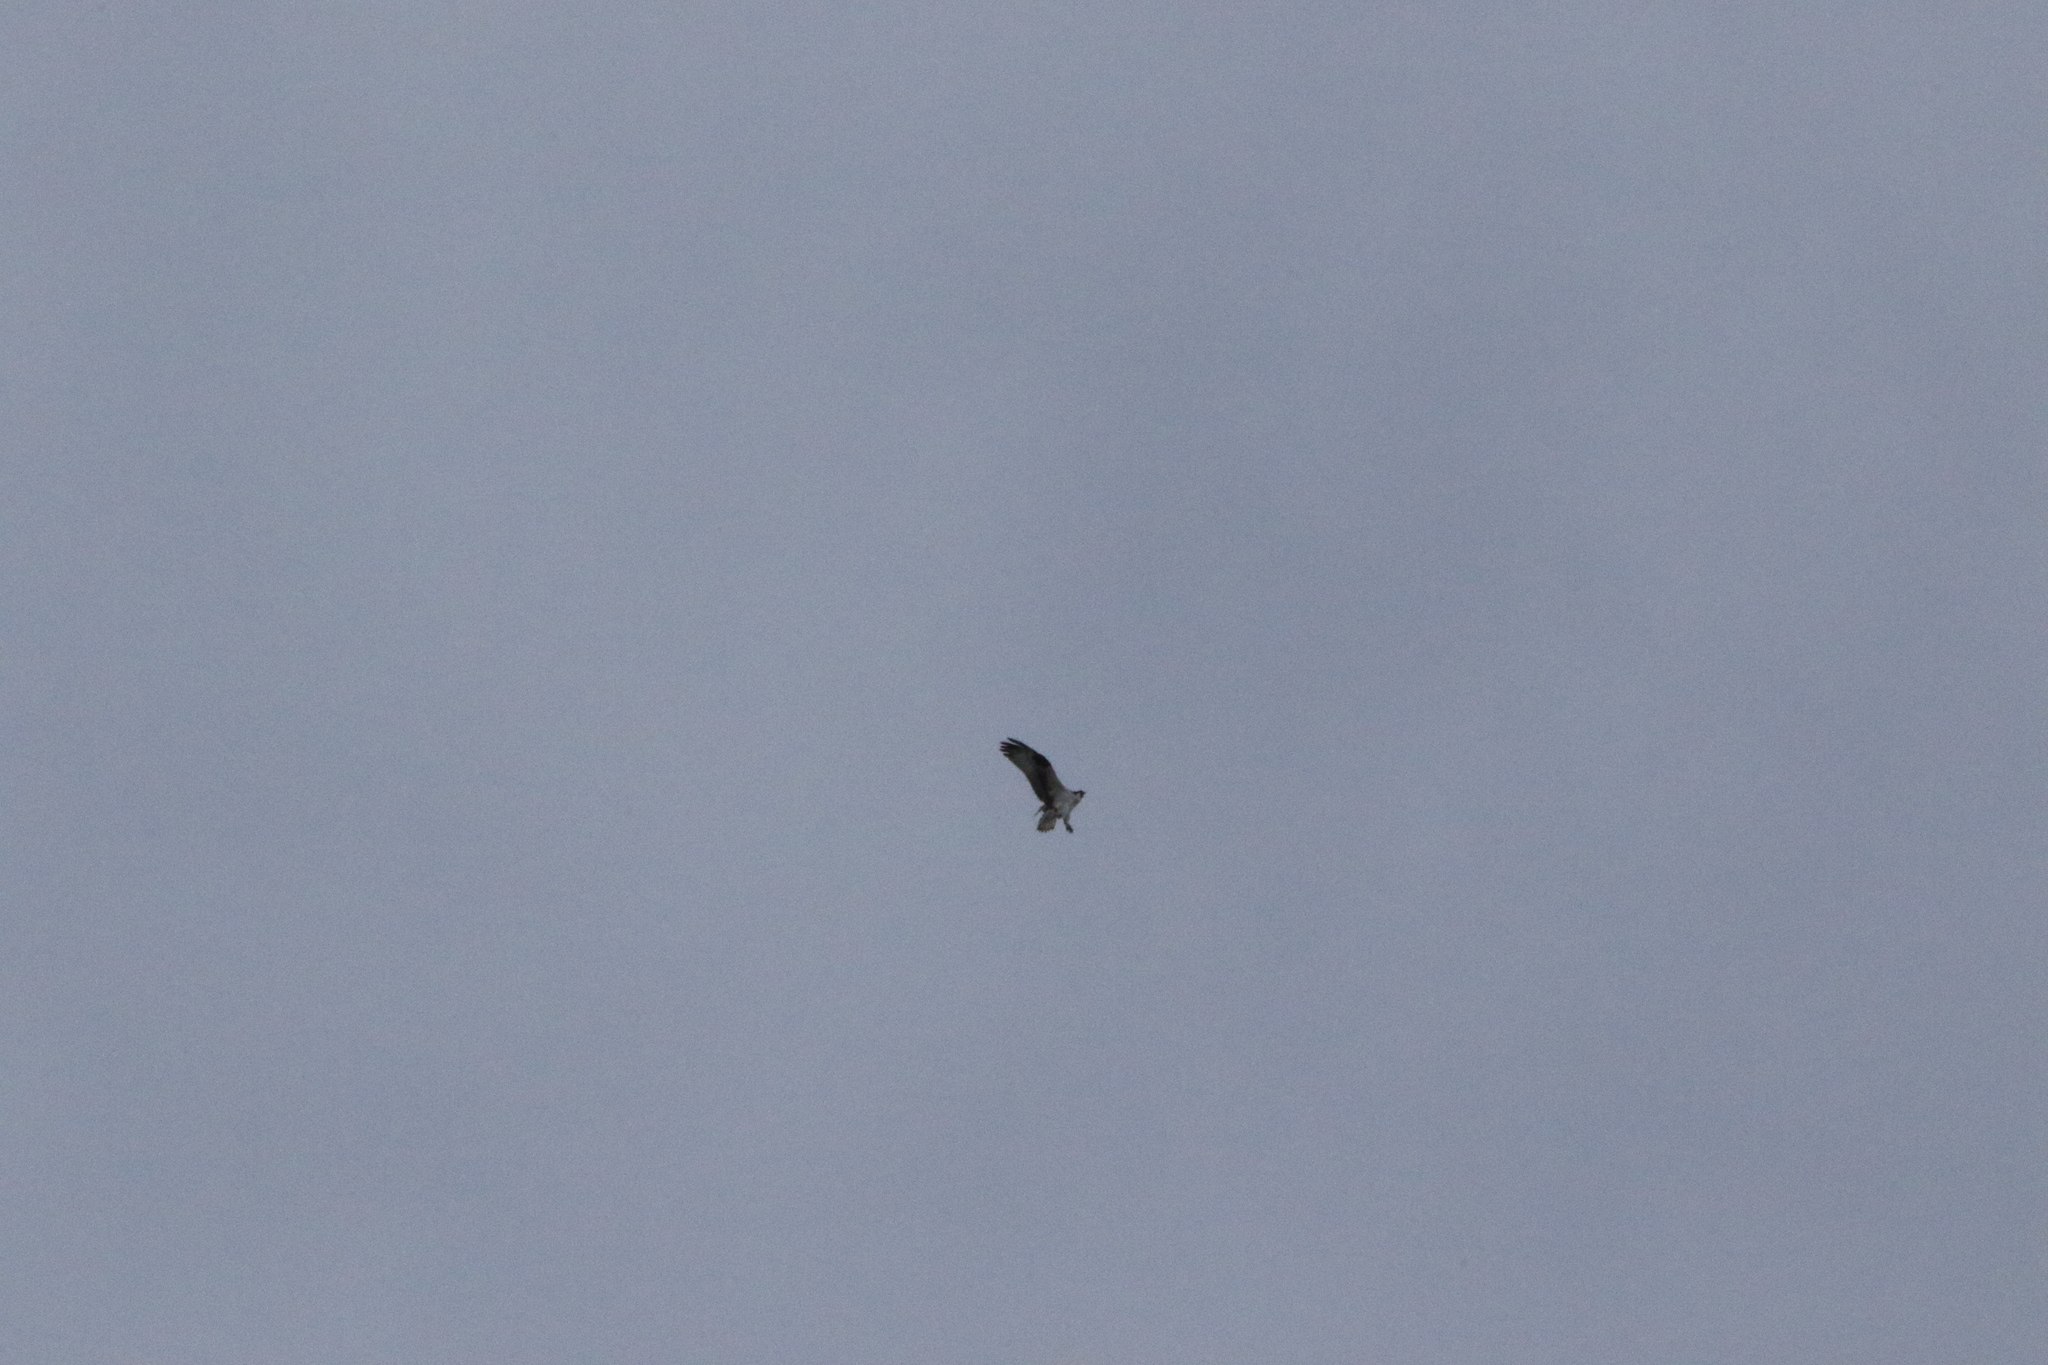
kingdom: Animalia
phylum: Chordata
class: Aves
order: Accipitriformes
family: Pandionidae
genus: Pandion
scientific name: Pandion haliaetus
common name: Osprey
